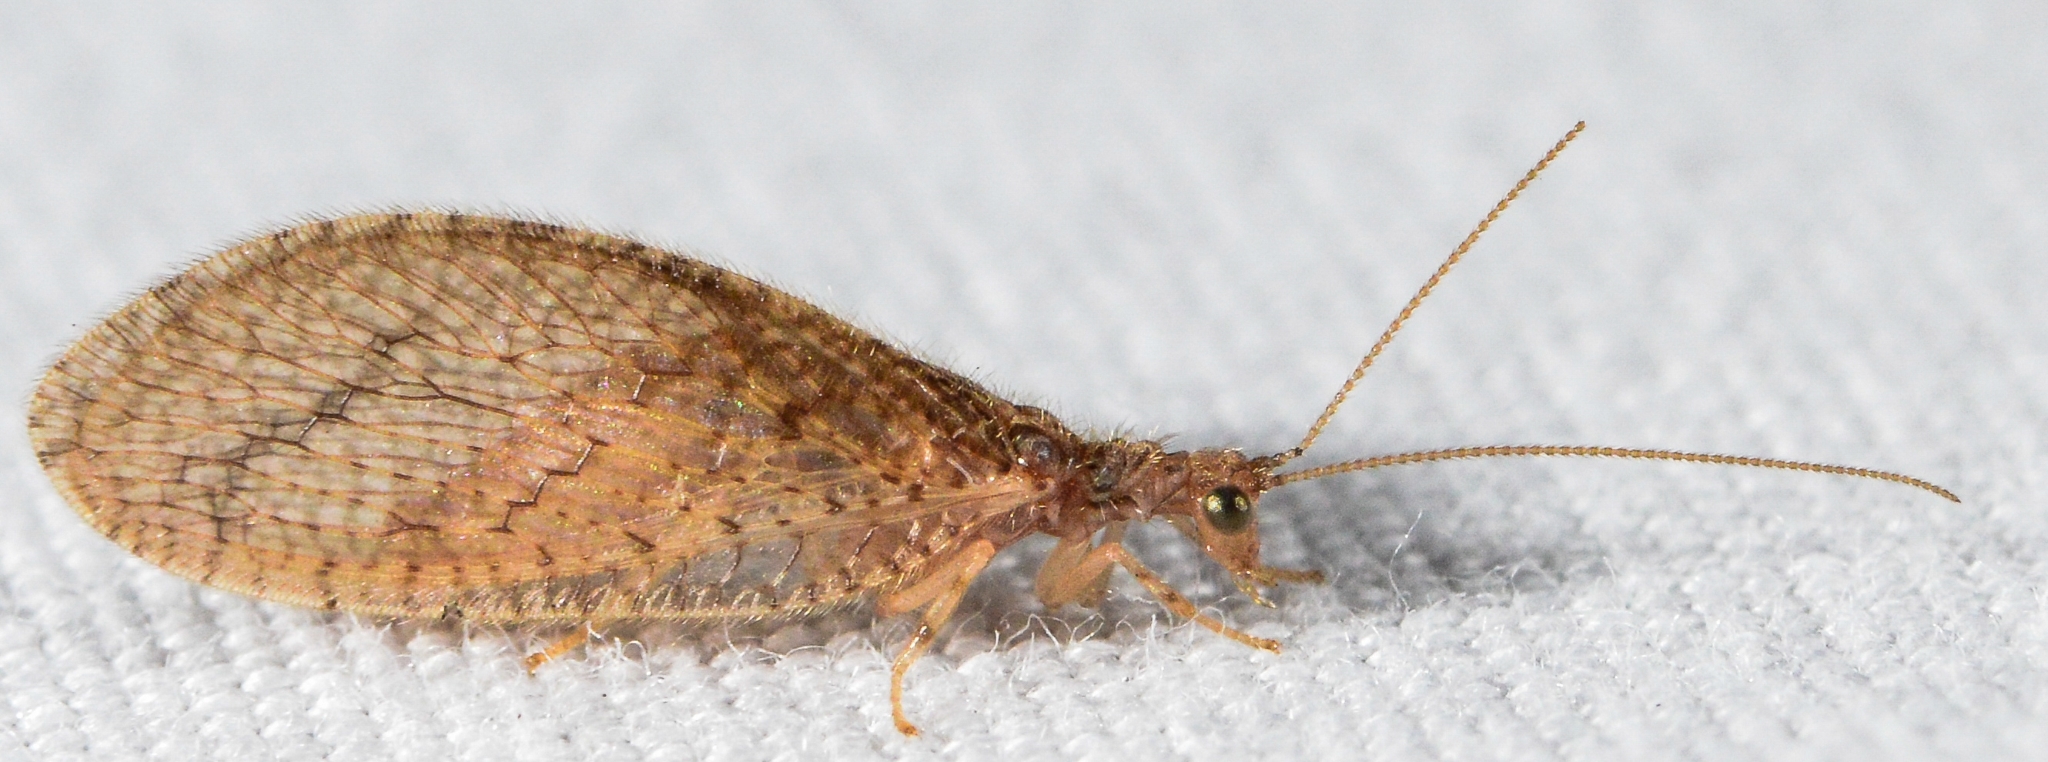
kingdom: Animalia
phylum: Arthropoda
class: Insecta
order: Neuroptera
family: Hemerobiidae
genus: Micromus
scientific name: Micromus posticus
